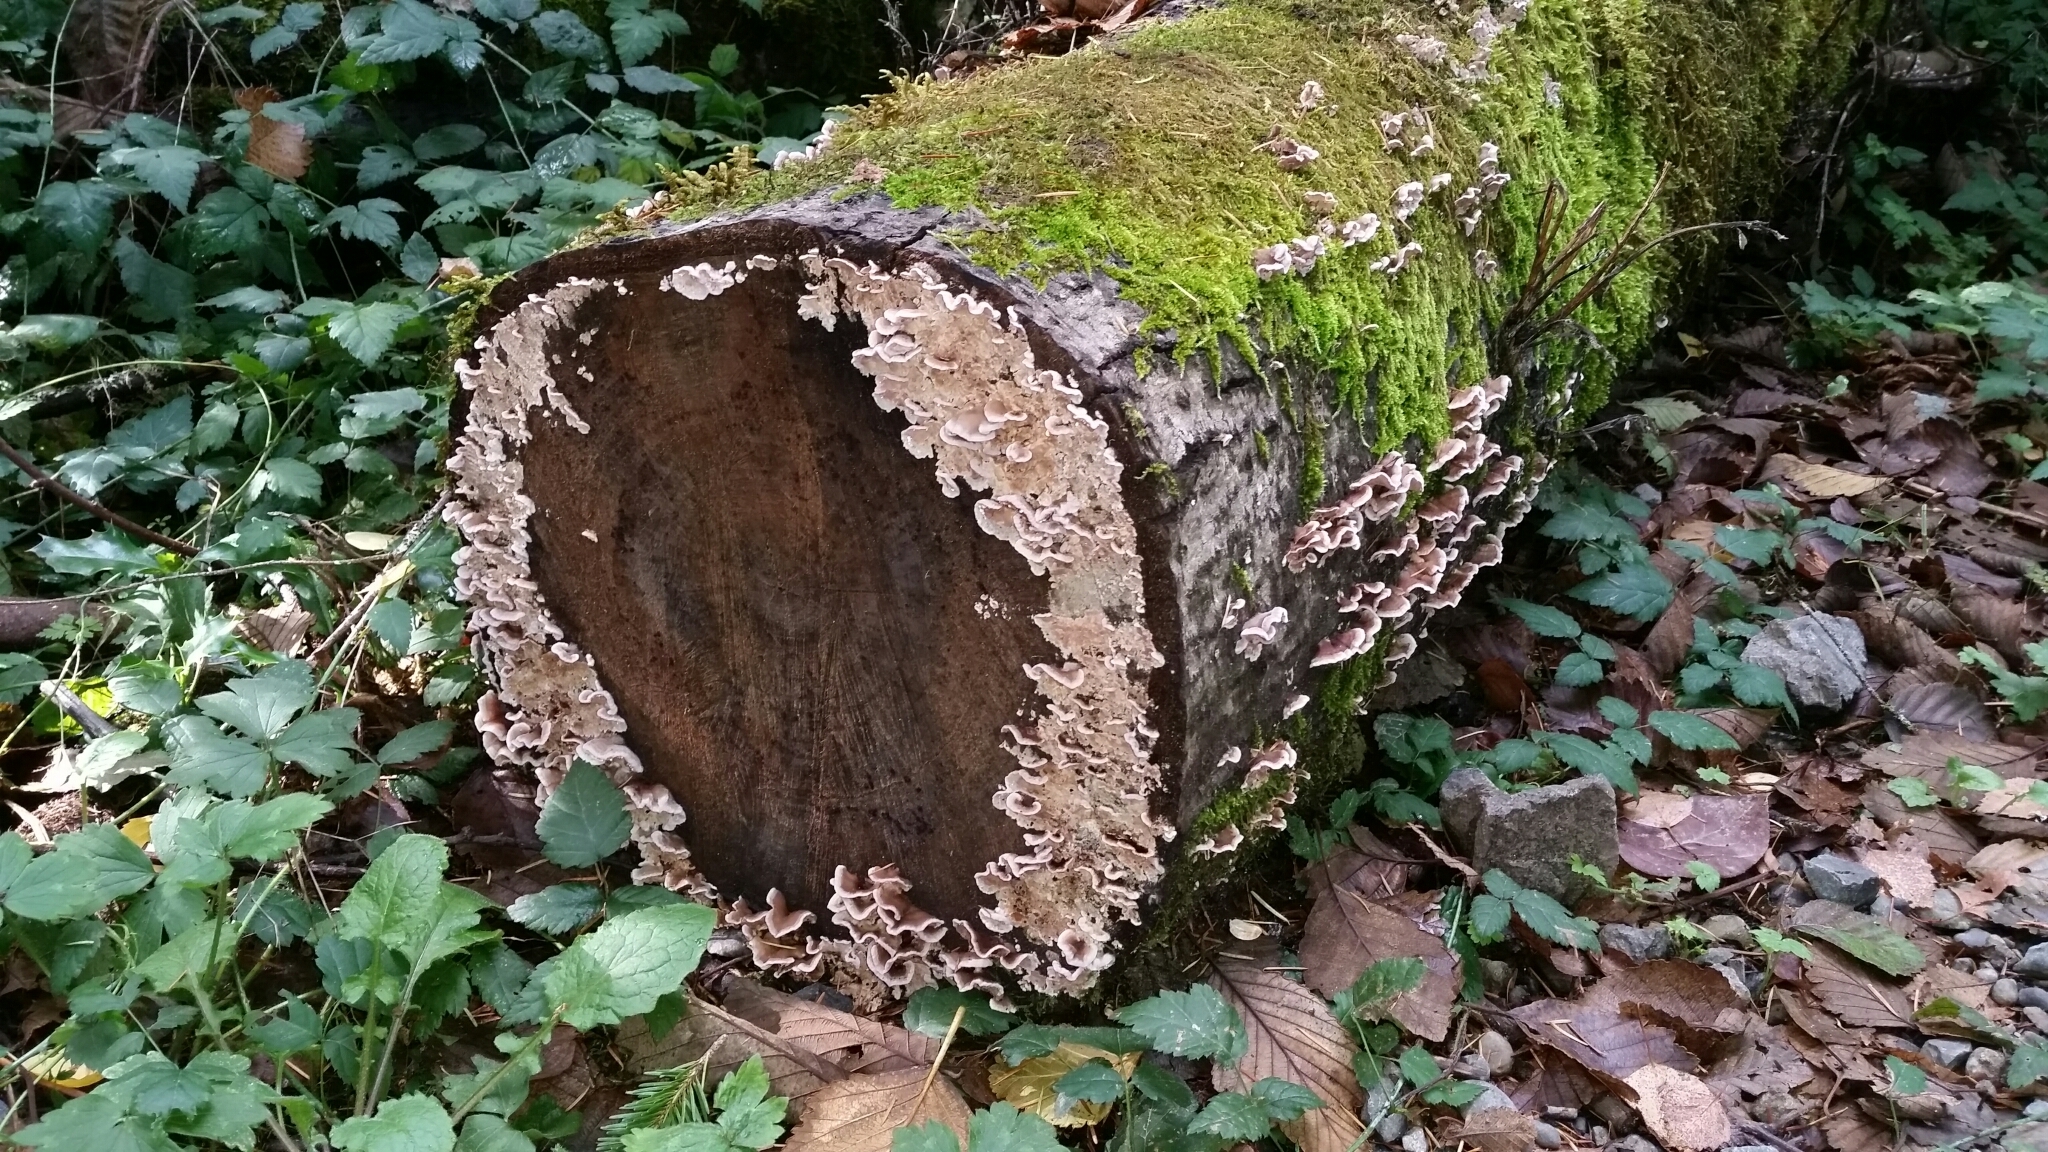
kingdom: Fungi
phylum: Basidiomycota
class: Agaricomycetes
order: Polyporales
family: Polyporaceae
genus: Trametes
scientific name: Trametes versicolor
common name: Turkeytail
